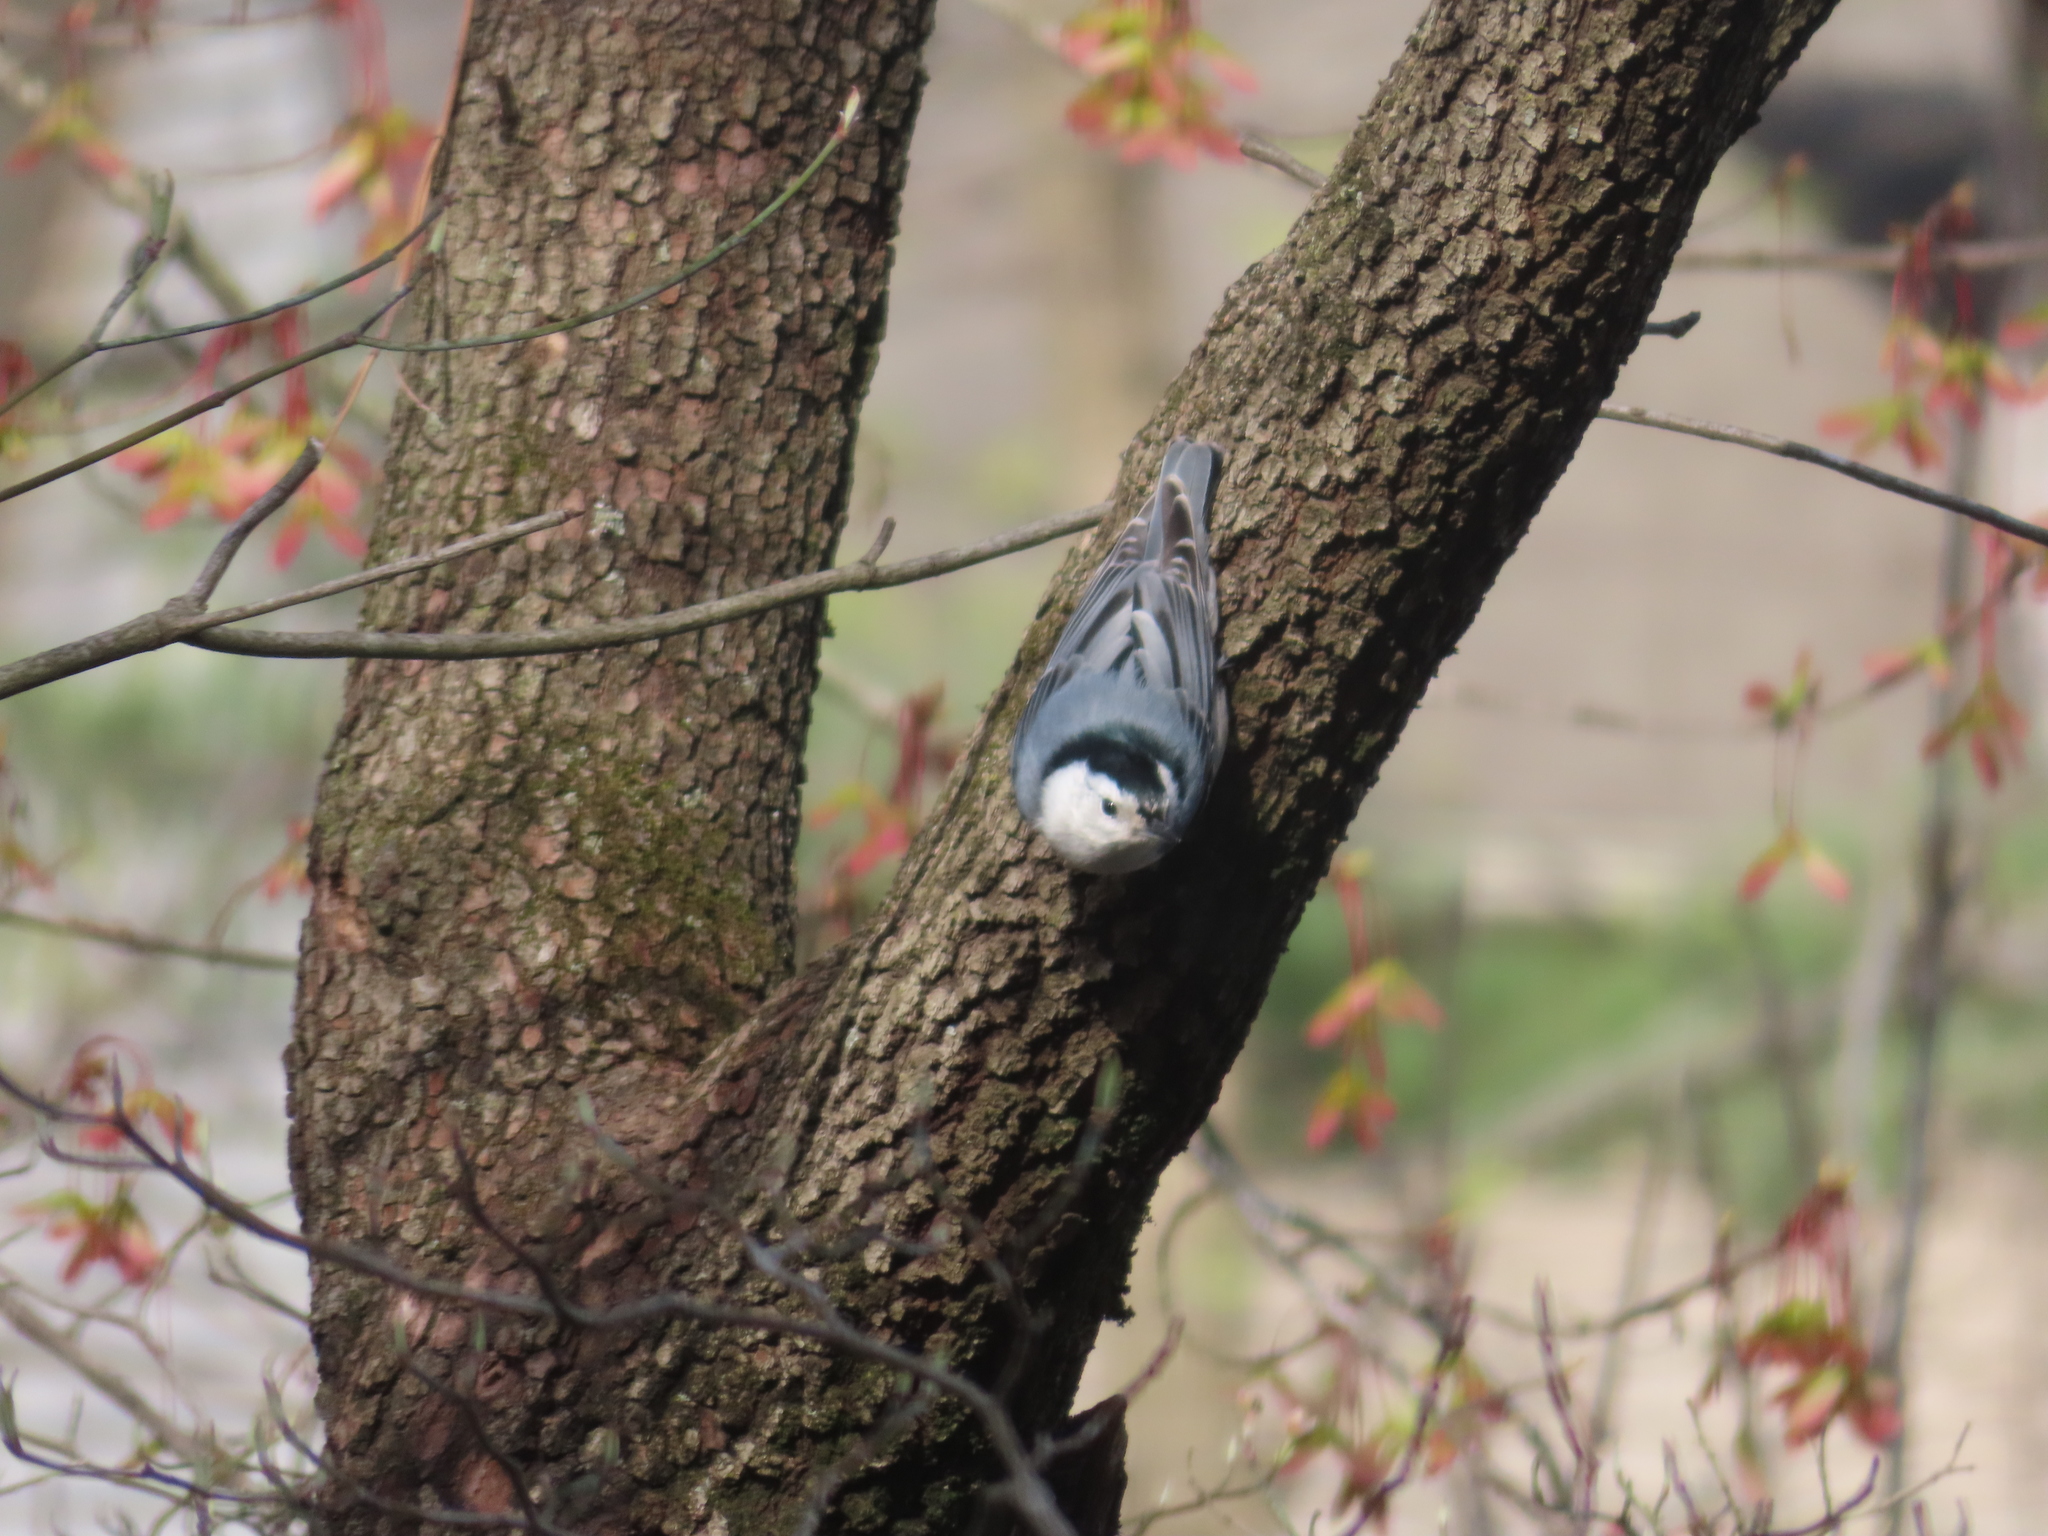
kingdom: Animalia
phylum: Chordata
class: Aves
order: Passeriformes
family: Sittidae
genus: Sitta
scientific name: Sitta carolinensis
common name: White-breasted nuthatch
